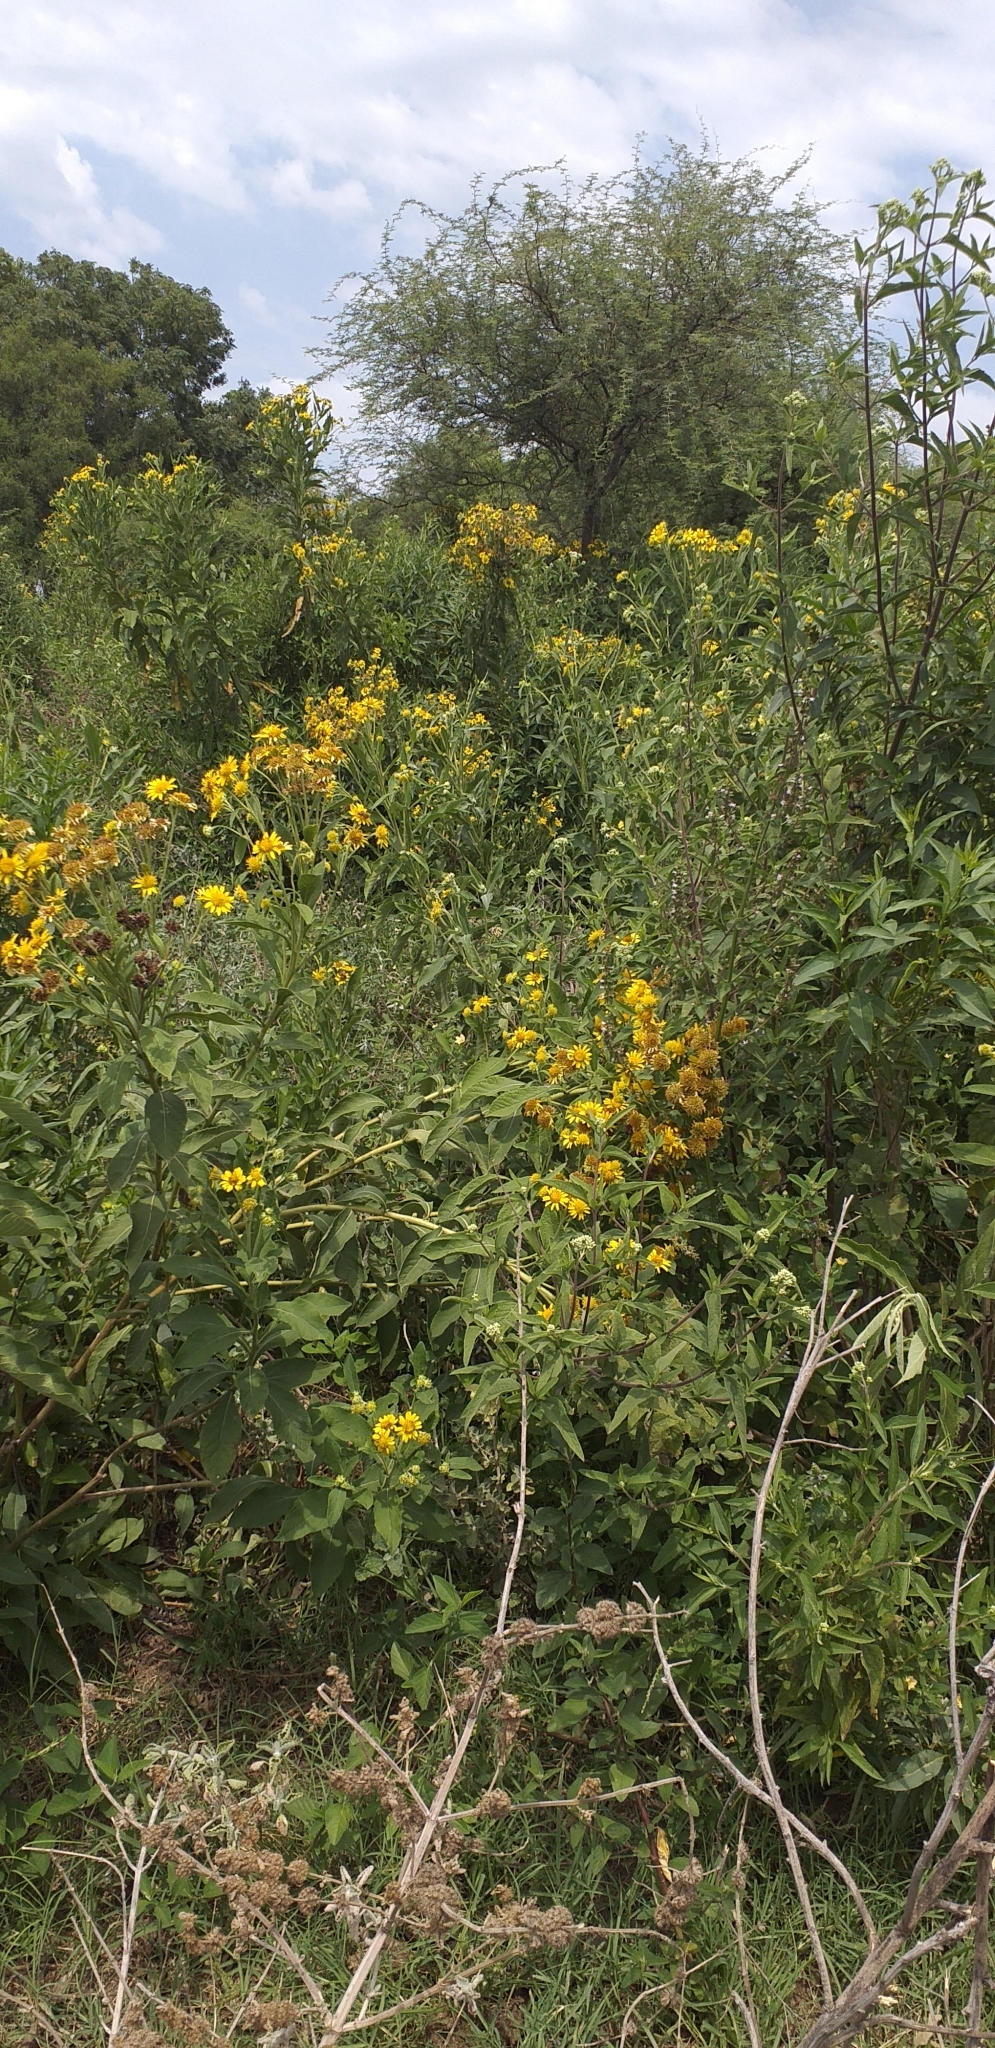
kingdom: Plantae
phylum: Tracheophyta
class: Magnoliopsida
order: Asterales
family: Asteraceae
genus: Verbesina
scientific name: Verbesina subcordata
